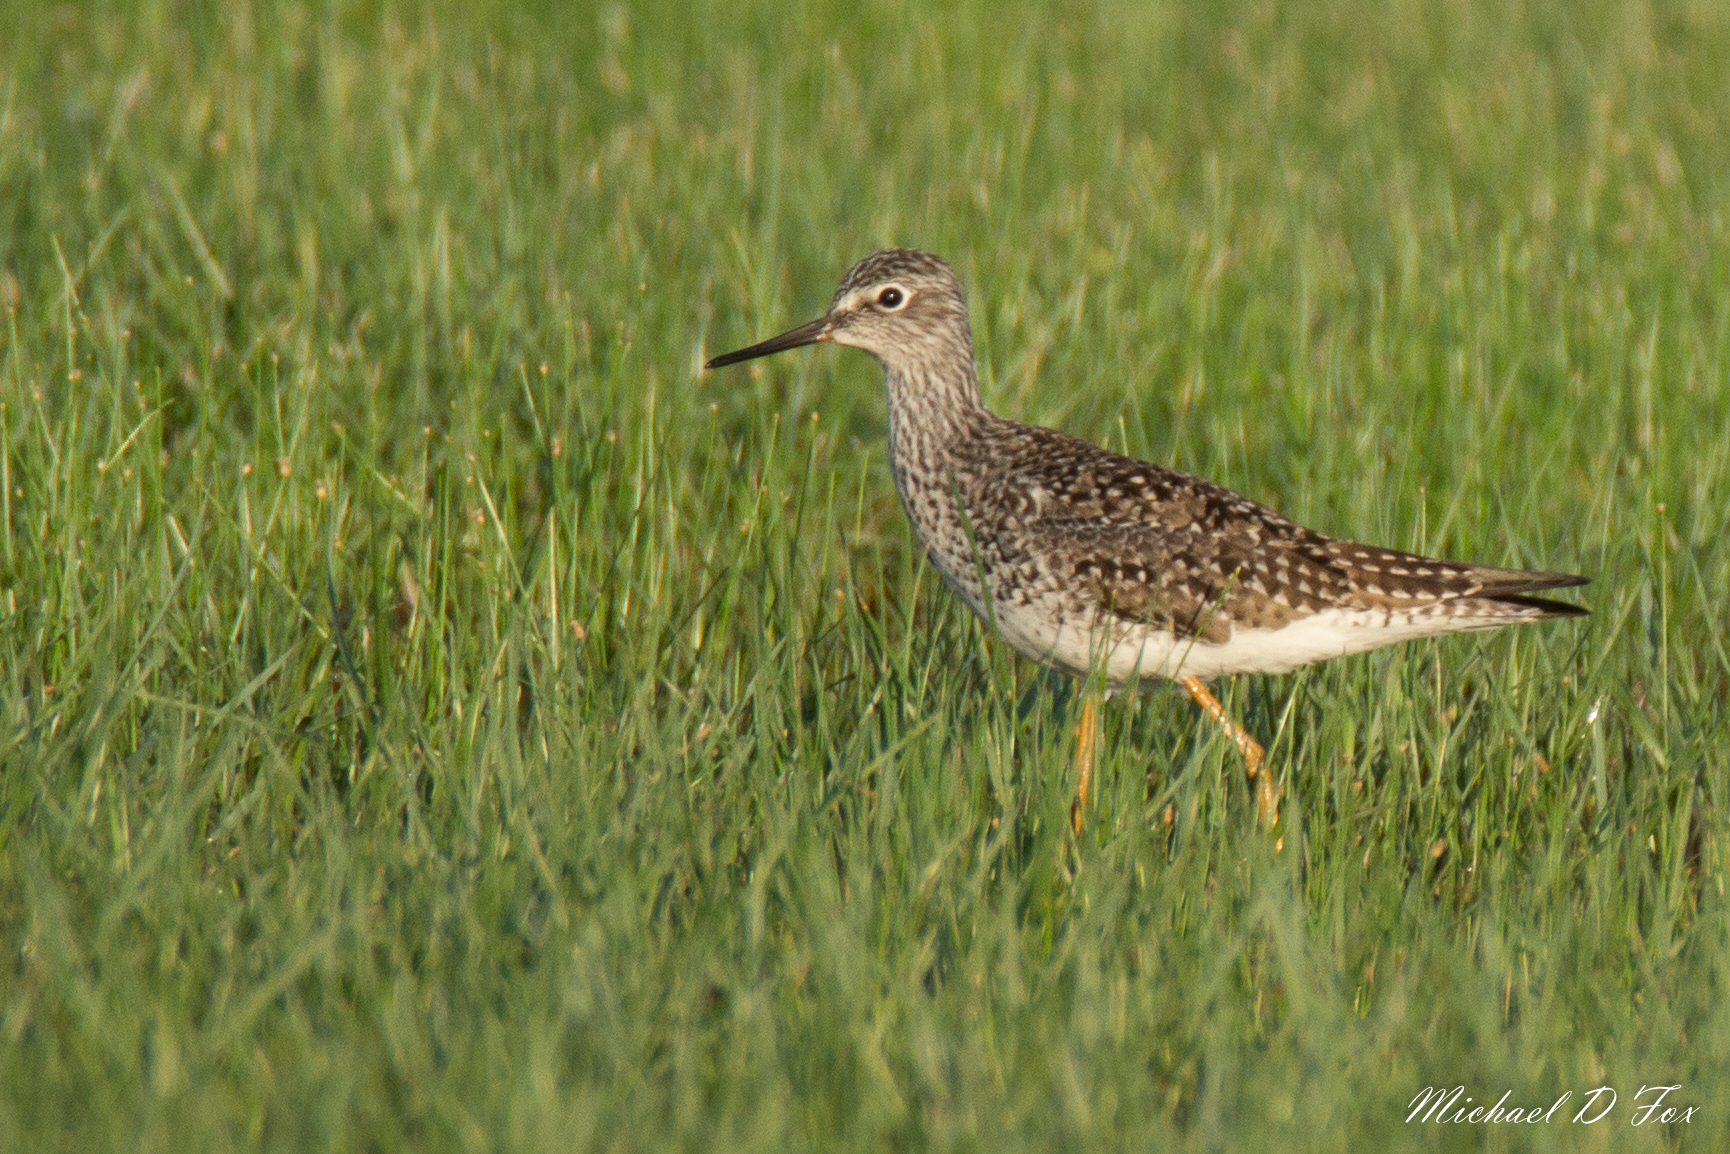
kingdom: Animalia
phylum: Chordata
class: Aves
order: Charadriiformes
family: Scolopacidae
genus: Tringa
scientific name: Tringa flavipes
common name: Lesser yellowlegs
